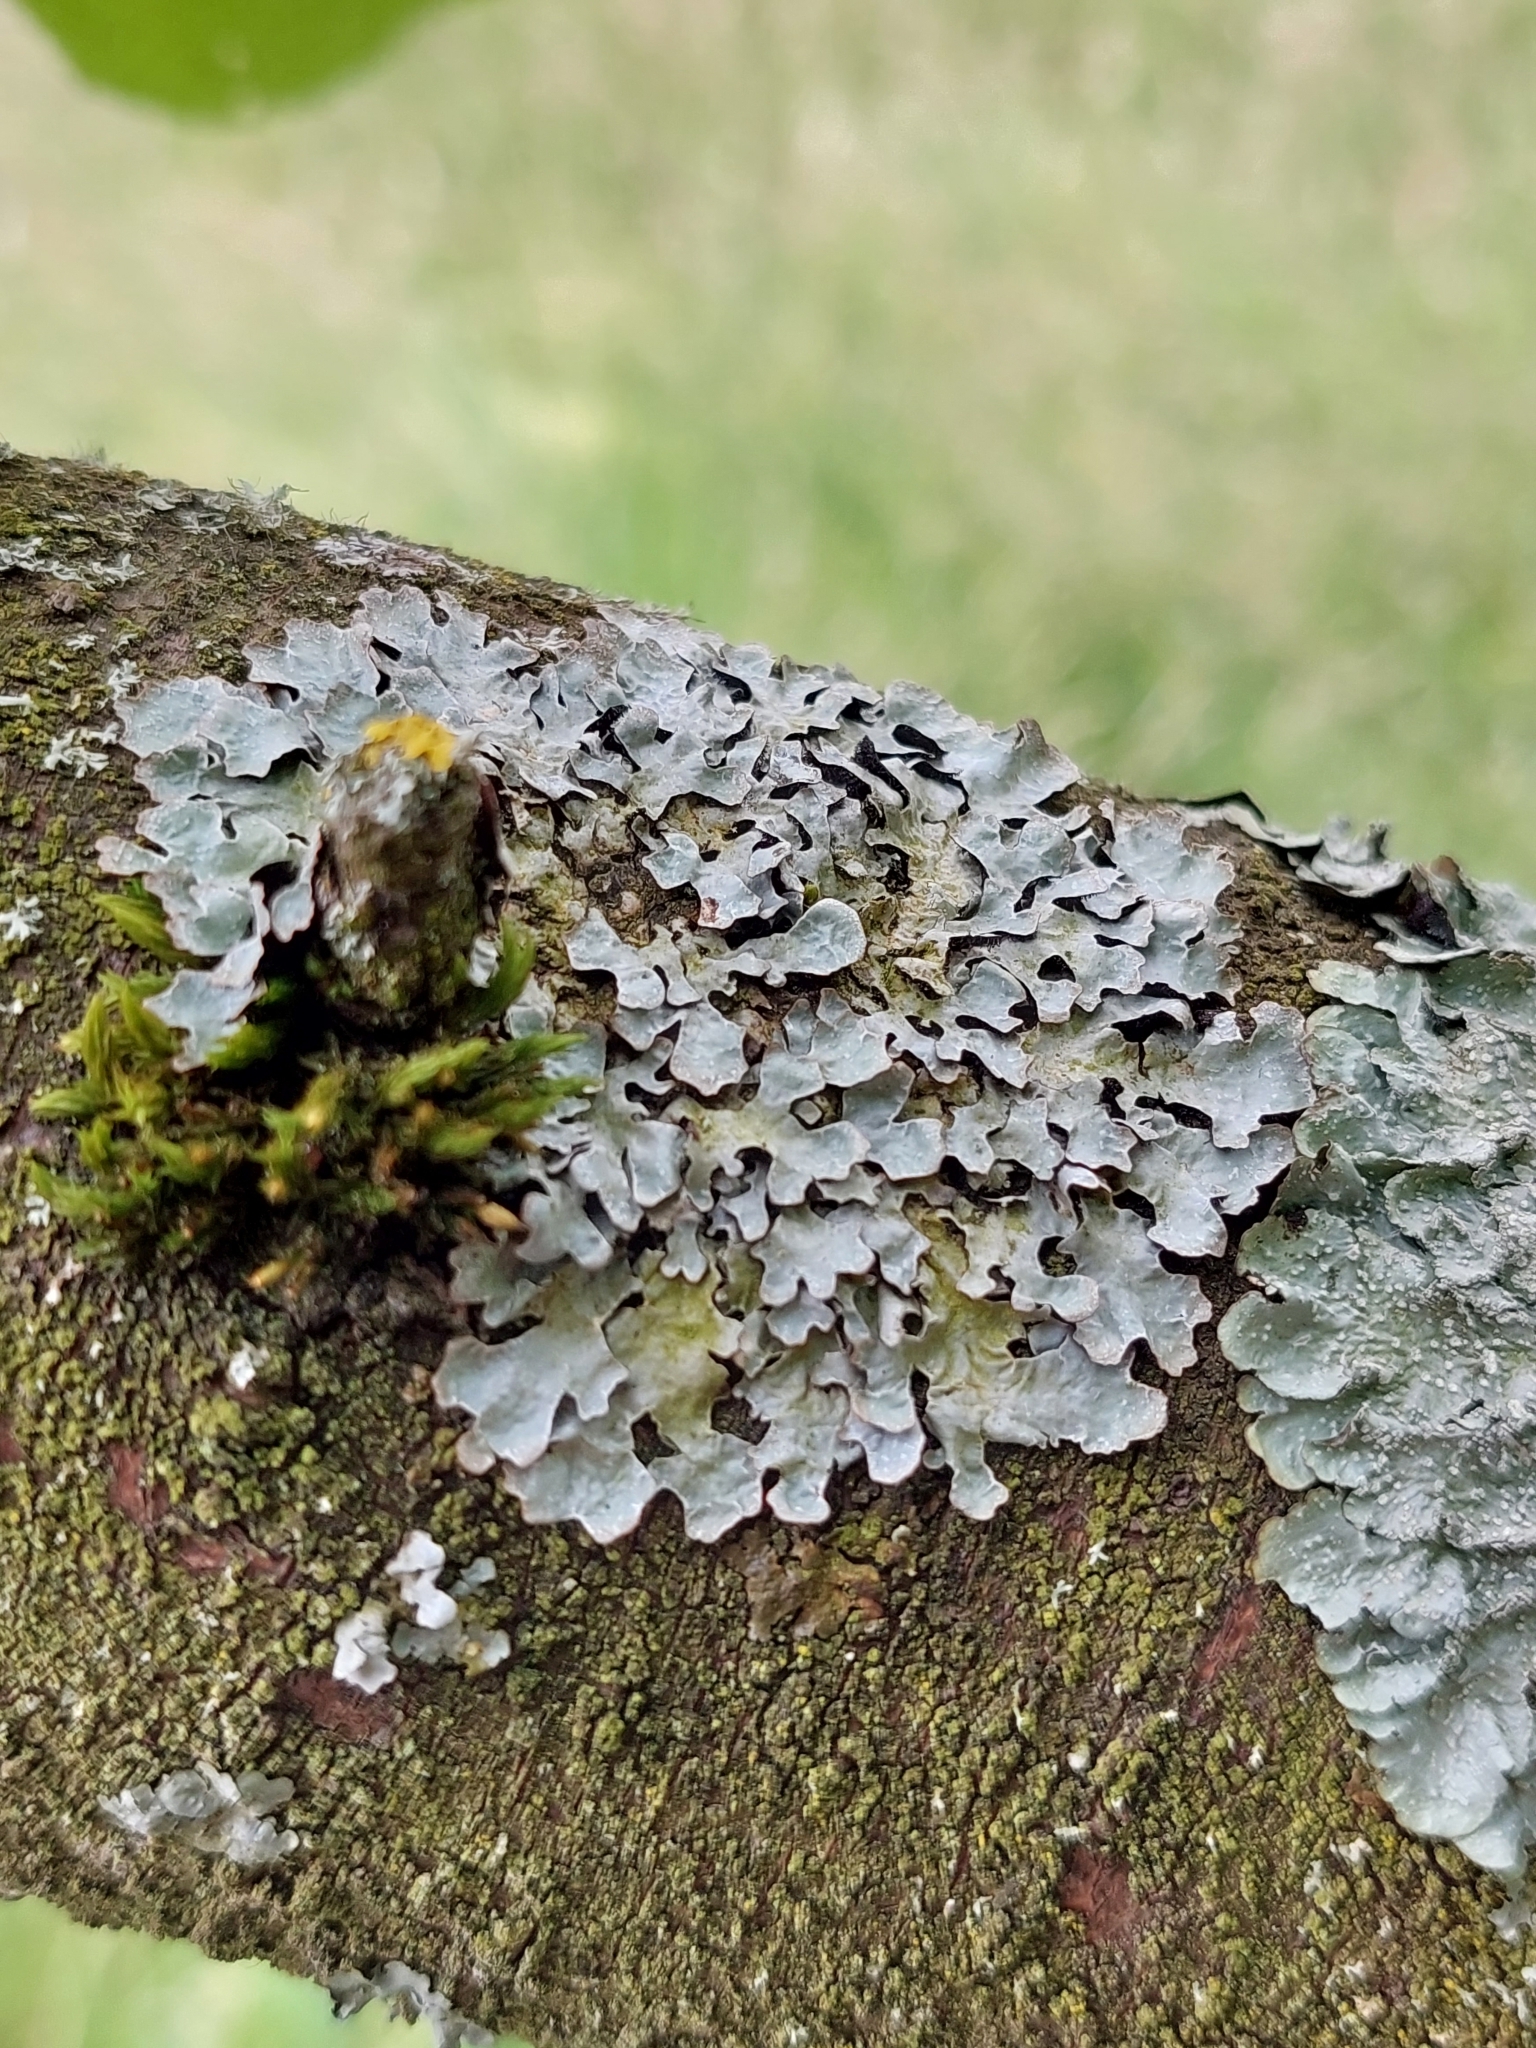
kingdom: Fungi
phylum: Ascomycota
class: Lecanoromycetes
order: Lecanorales
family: Parmeliaceae
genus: Parmelia
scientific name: Parmelia sulcata
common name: Netted shield lichen
